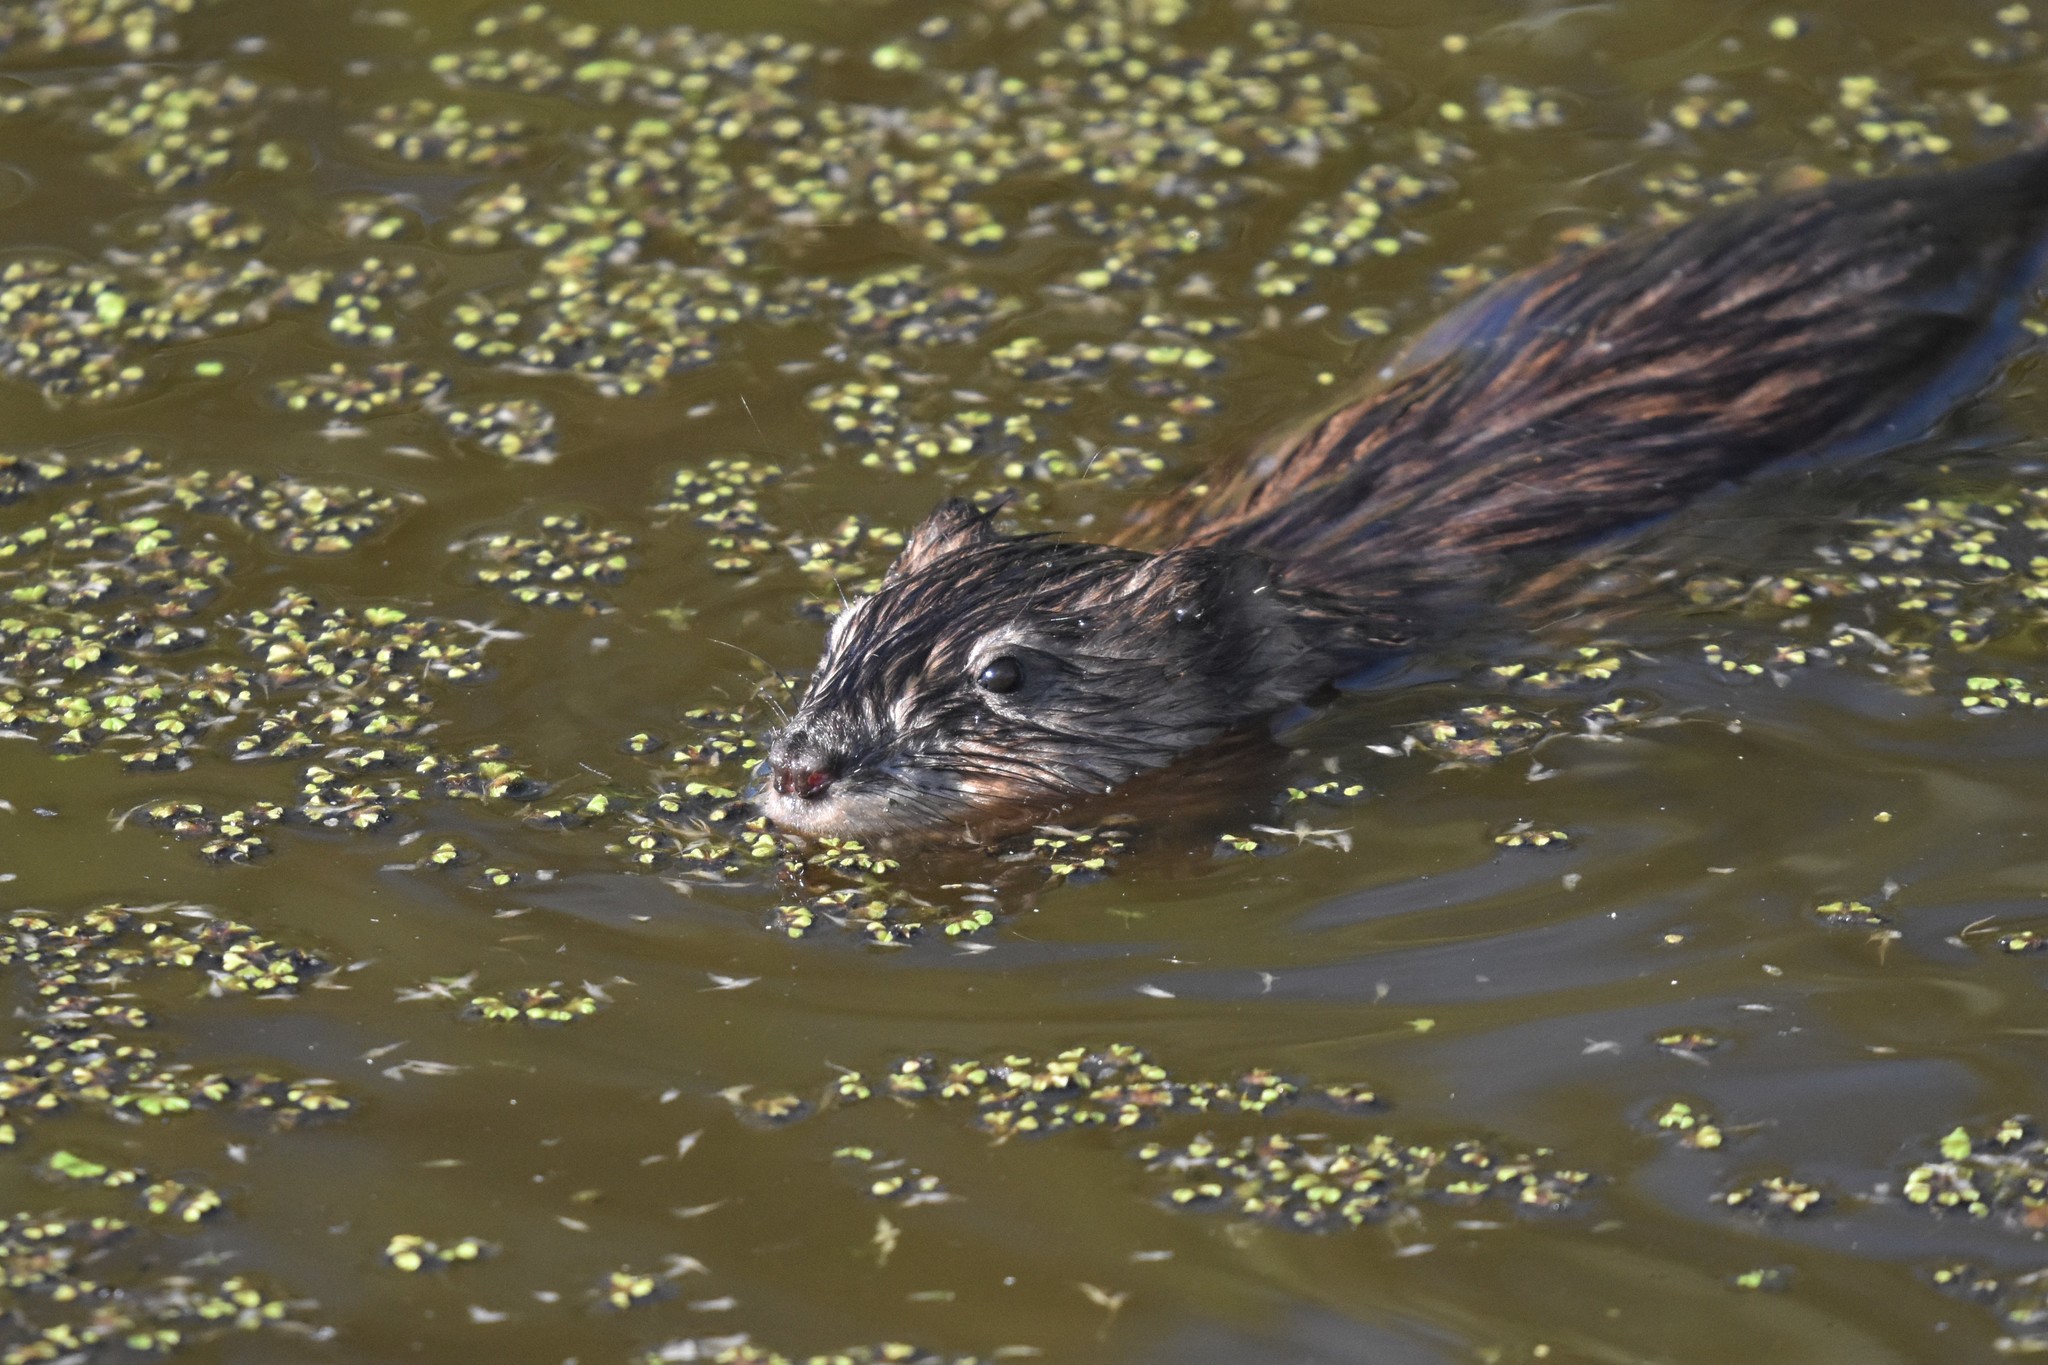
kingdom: Animalia
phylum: Chordata
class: Mammalia
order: Rodentia
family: Cricetidae
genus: Ondatra
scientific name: Ondatra zibethicus
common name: Muskrat
